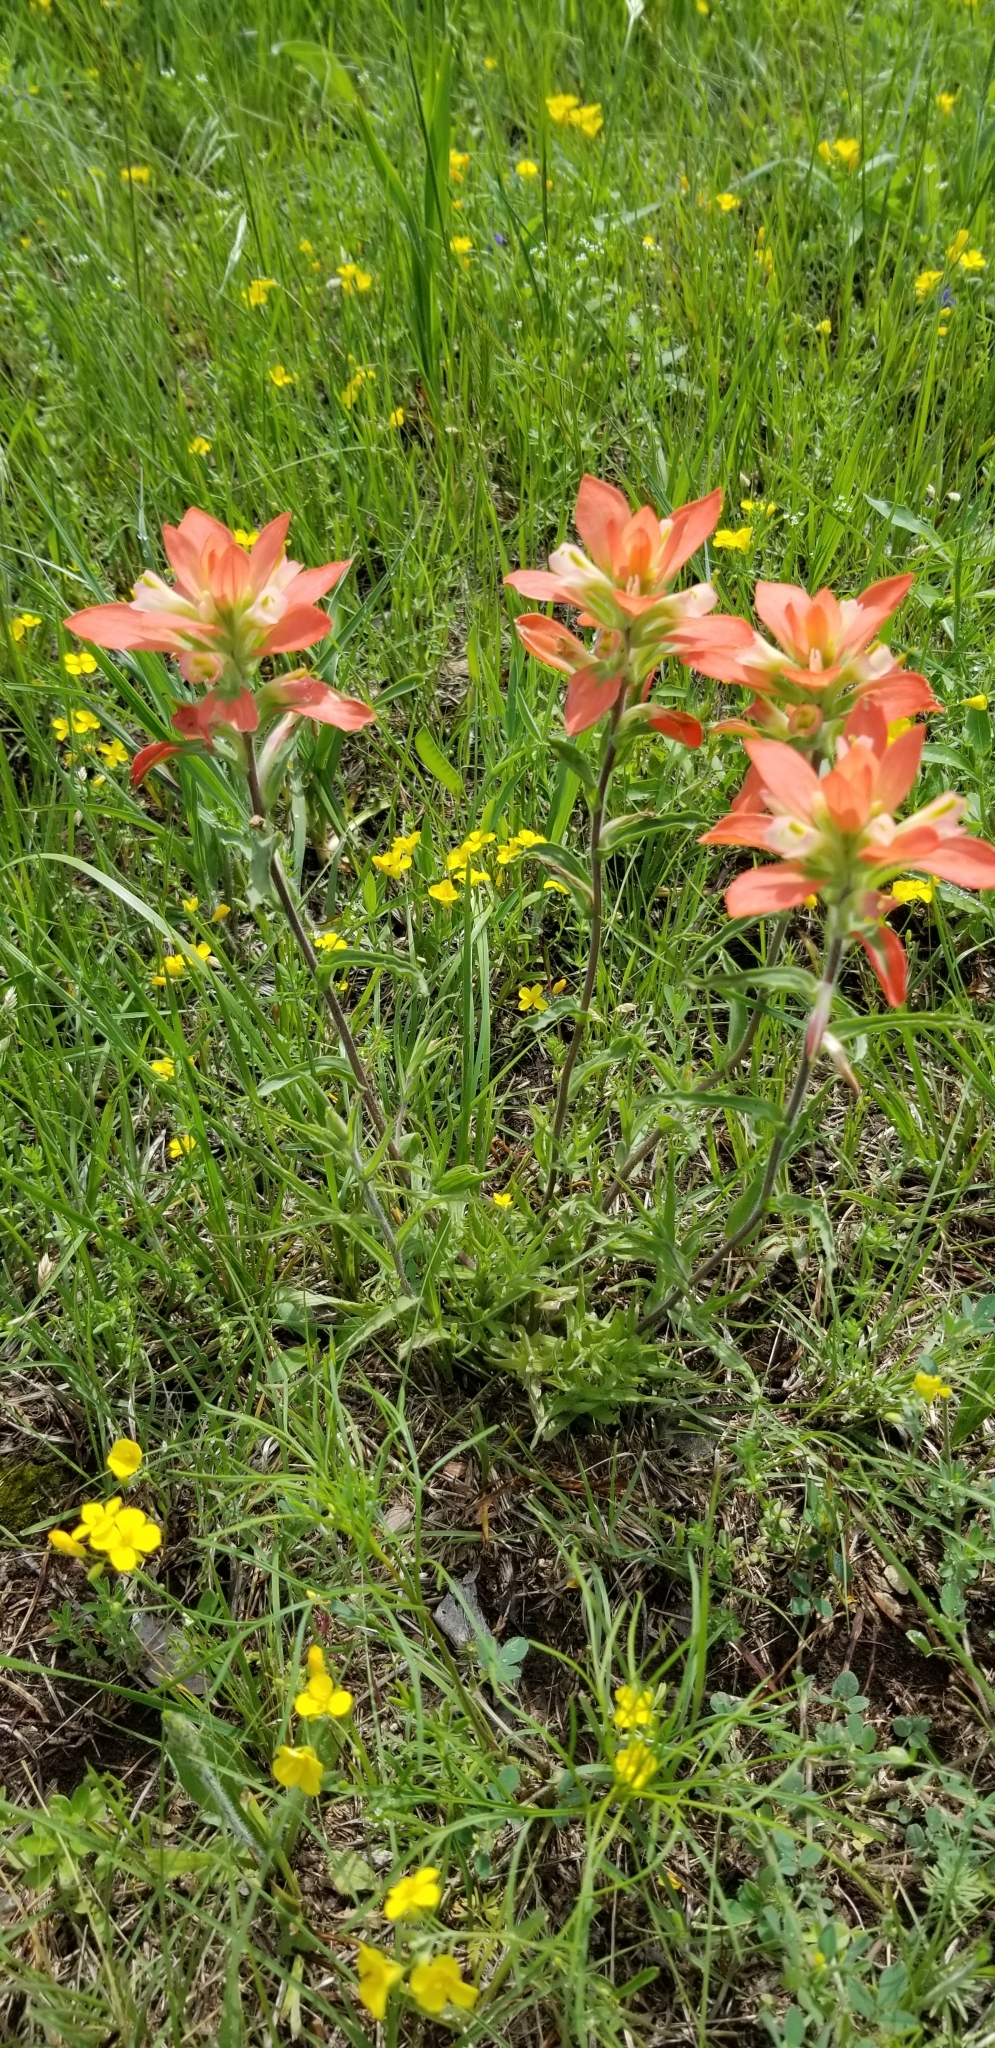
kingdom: Plantae
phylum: Tracheophyta
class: Magnoliopsida
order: Lamiales
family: Orobanchaceae
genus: Castilleja
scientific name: Castilleja indivisa
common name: Texas paintbrush
